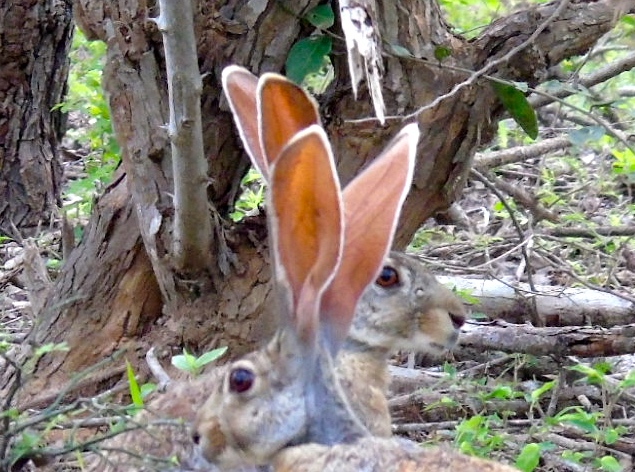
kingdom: Animalia
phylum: Chordata
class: Mammalia
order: Lagomorpha
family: Leporidae
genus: Lepus
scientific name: Lepus alleni
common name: Antelope jackrabbit
